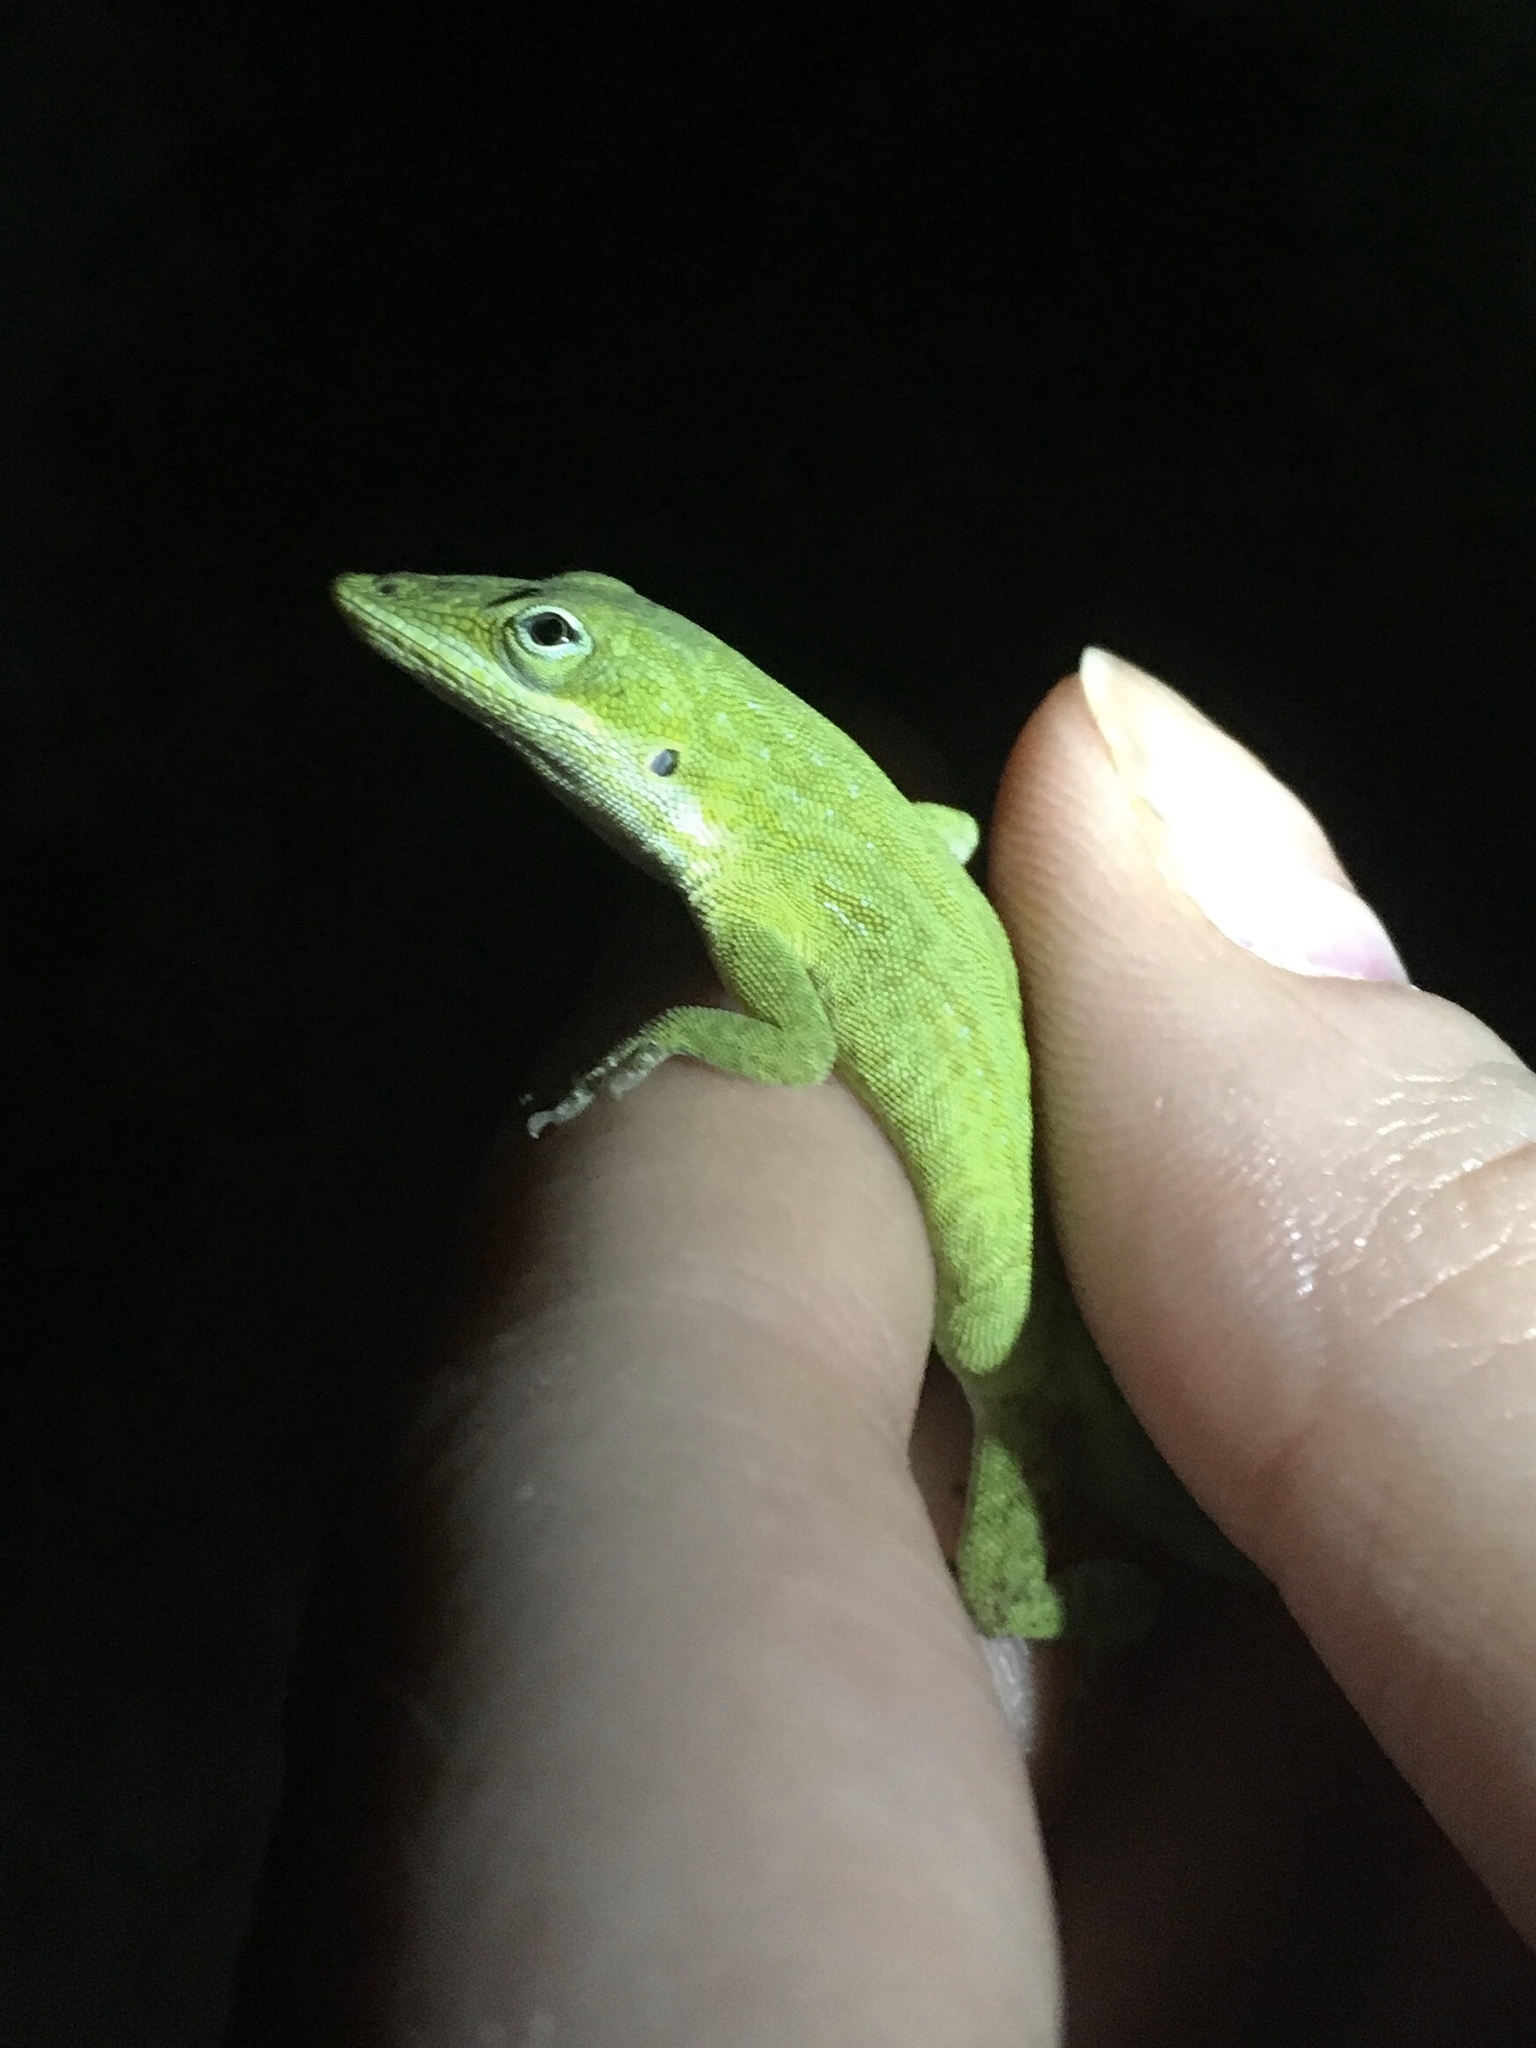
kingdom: Animalia
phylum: Chordata
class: Squamata
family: Dactyloidae
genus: Anolis
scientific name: Anolis carolinensis
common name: Green anole
